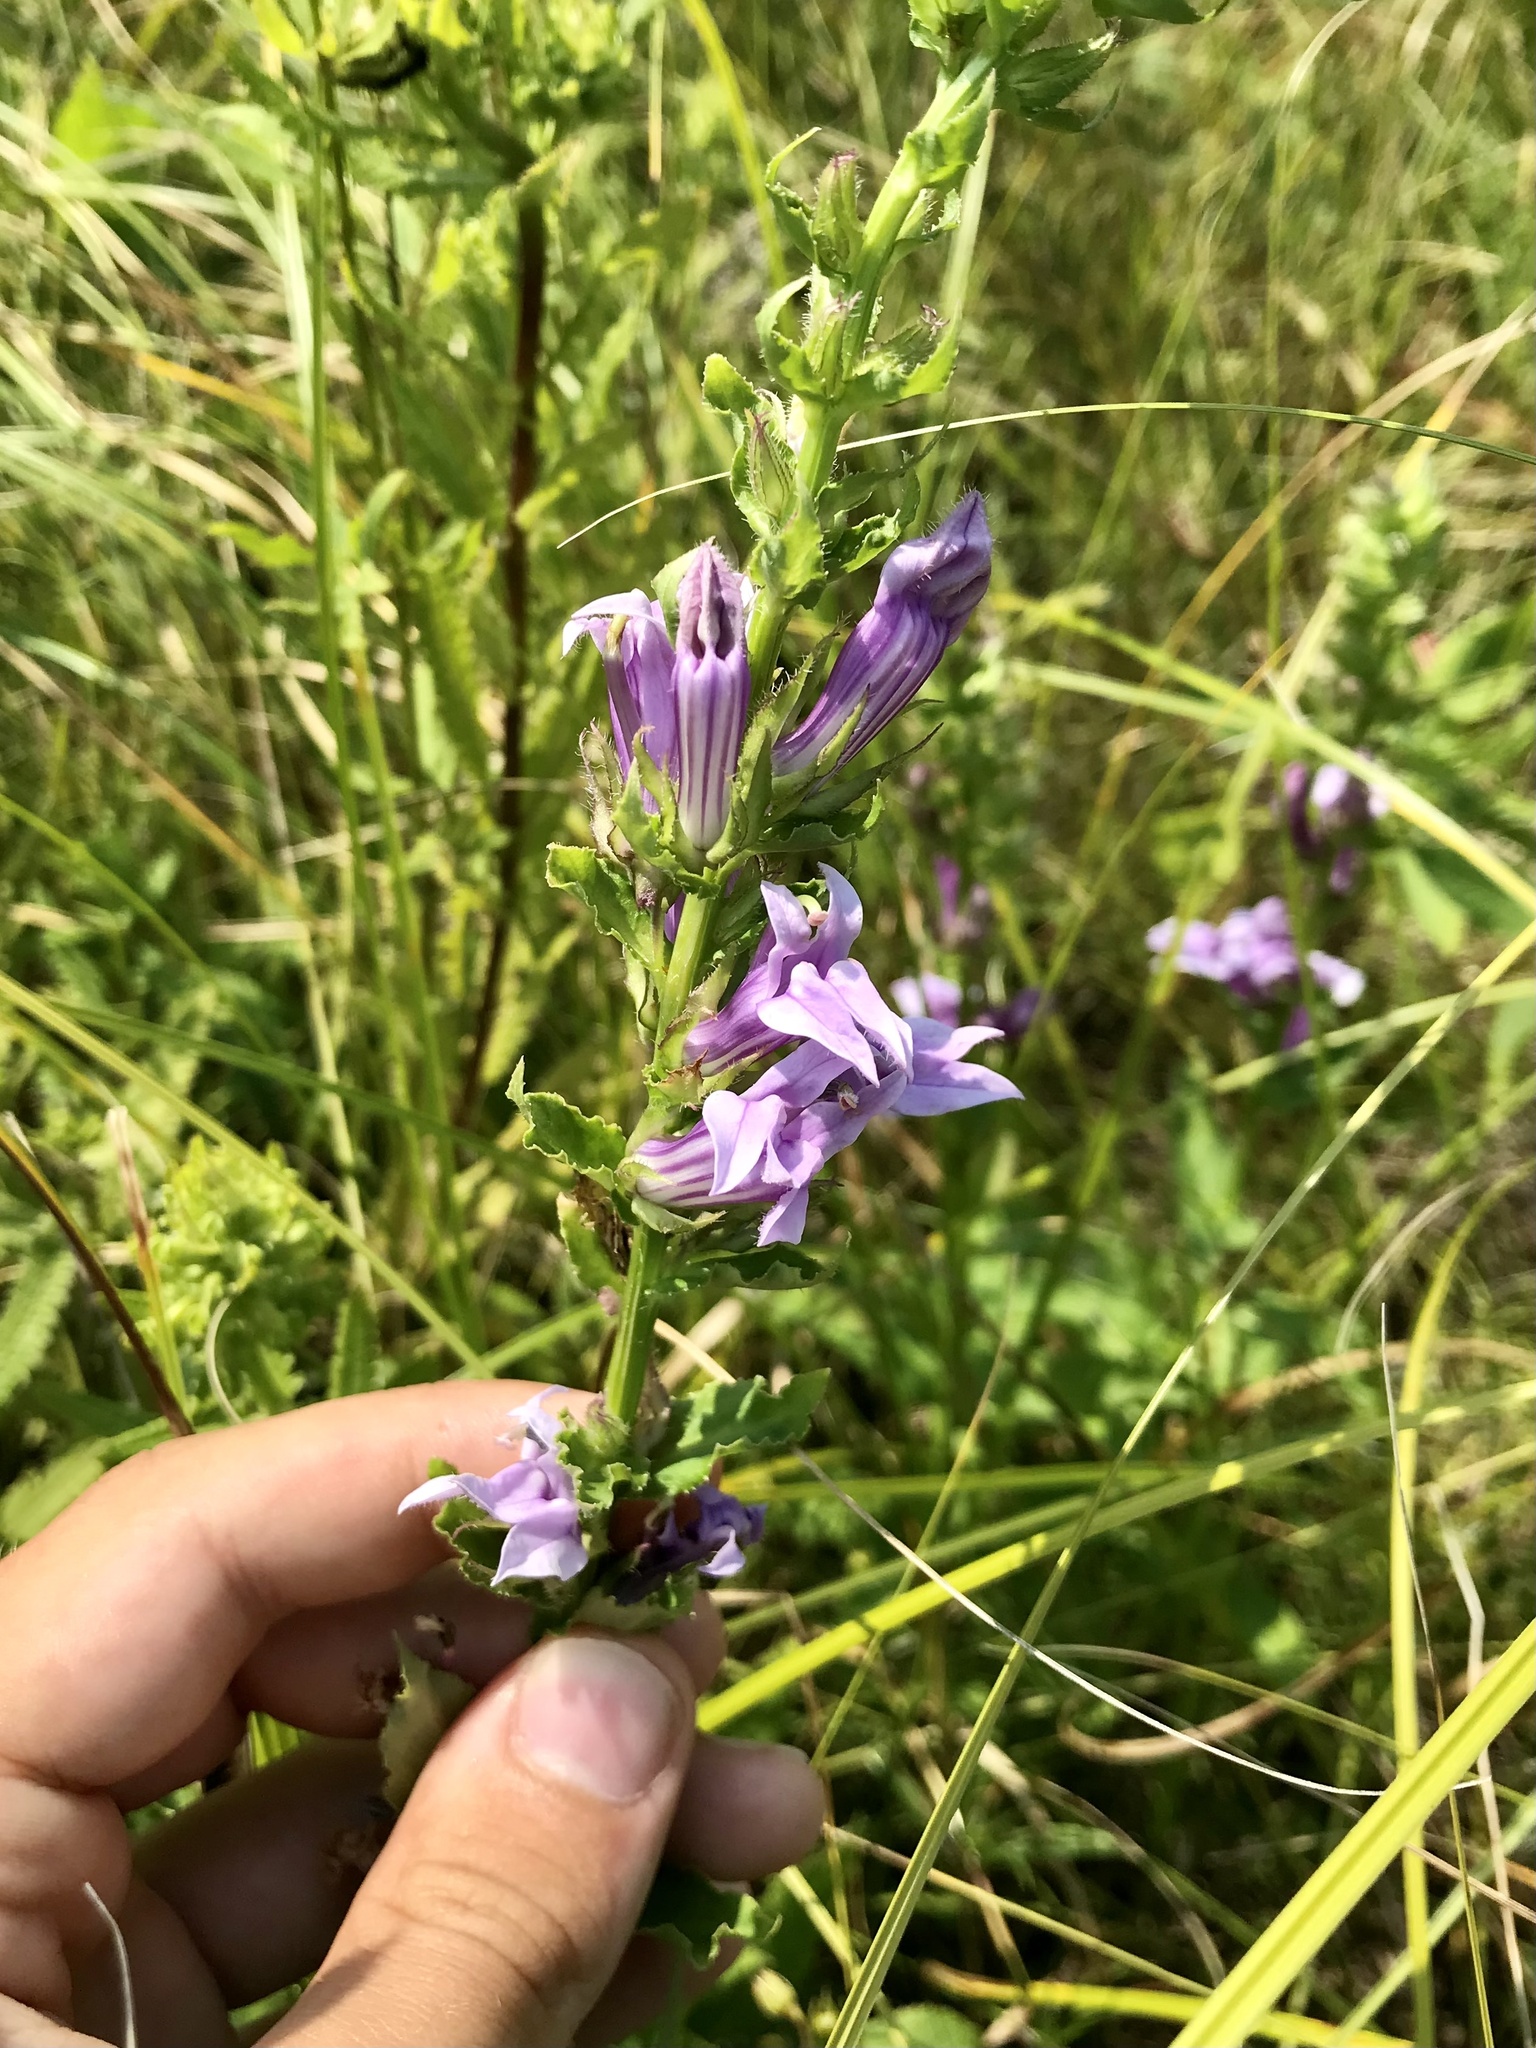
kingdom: Plantae
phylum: Tracheophyta
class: Magnoliopsida
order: Asterales
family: Campanulaceae
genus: Lobelia
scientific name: Lobelia siphilitica
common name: Great lobelia
